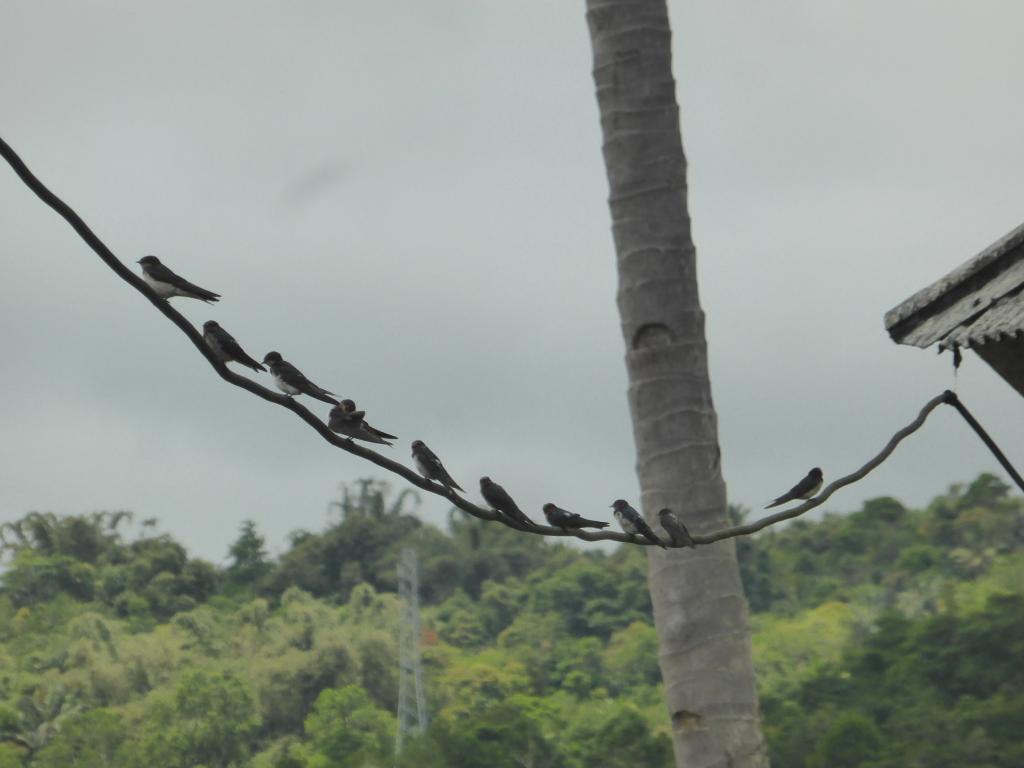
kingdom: Animalia
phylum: Chordata
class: Aves
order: Passeriformes
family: Hirundinidae
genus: Hirundo
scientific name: Hirundo rustica
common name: Barn swallow
